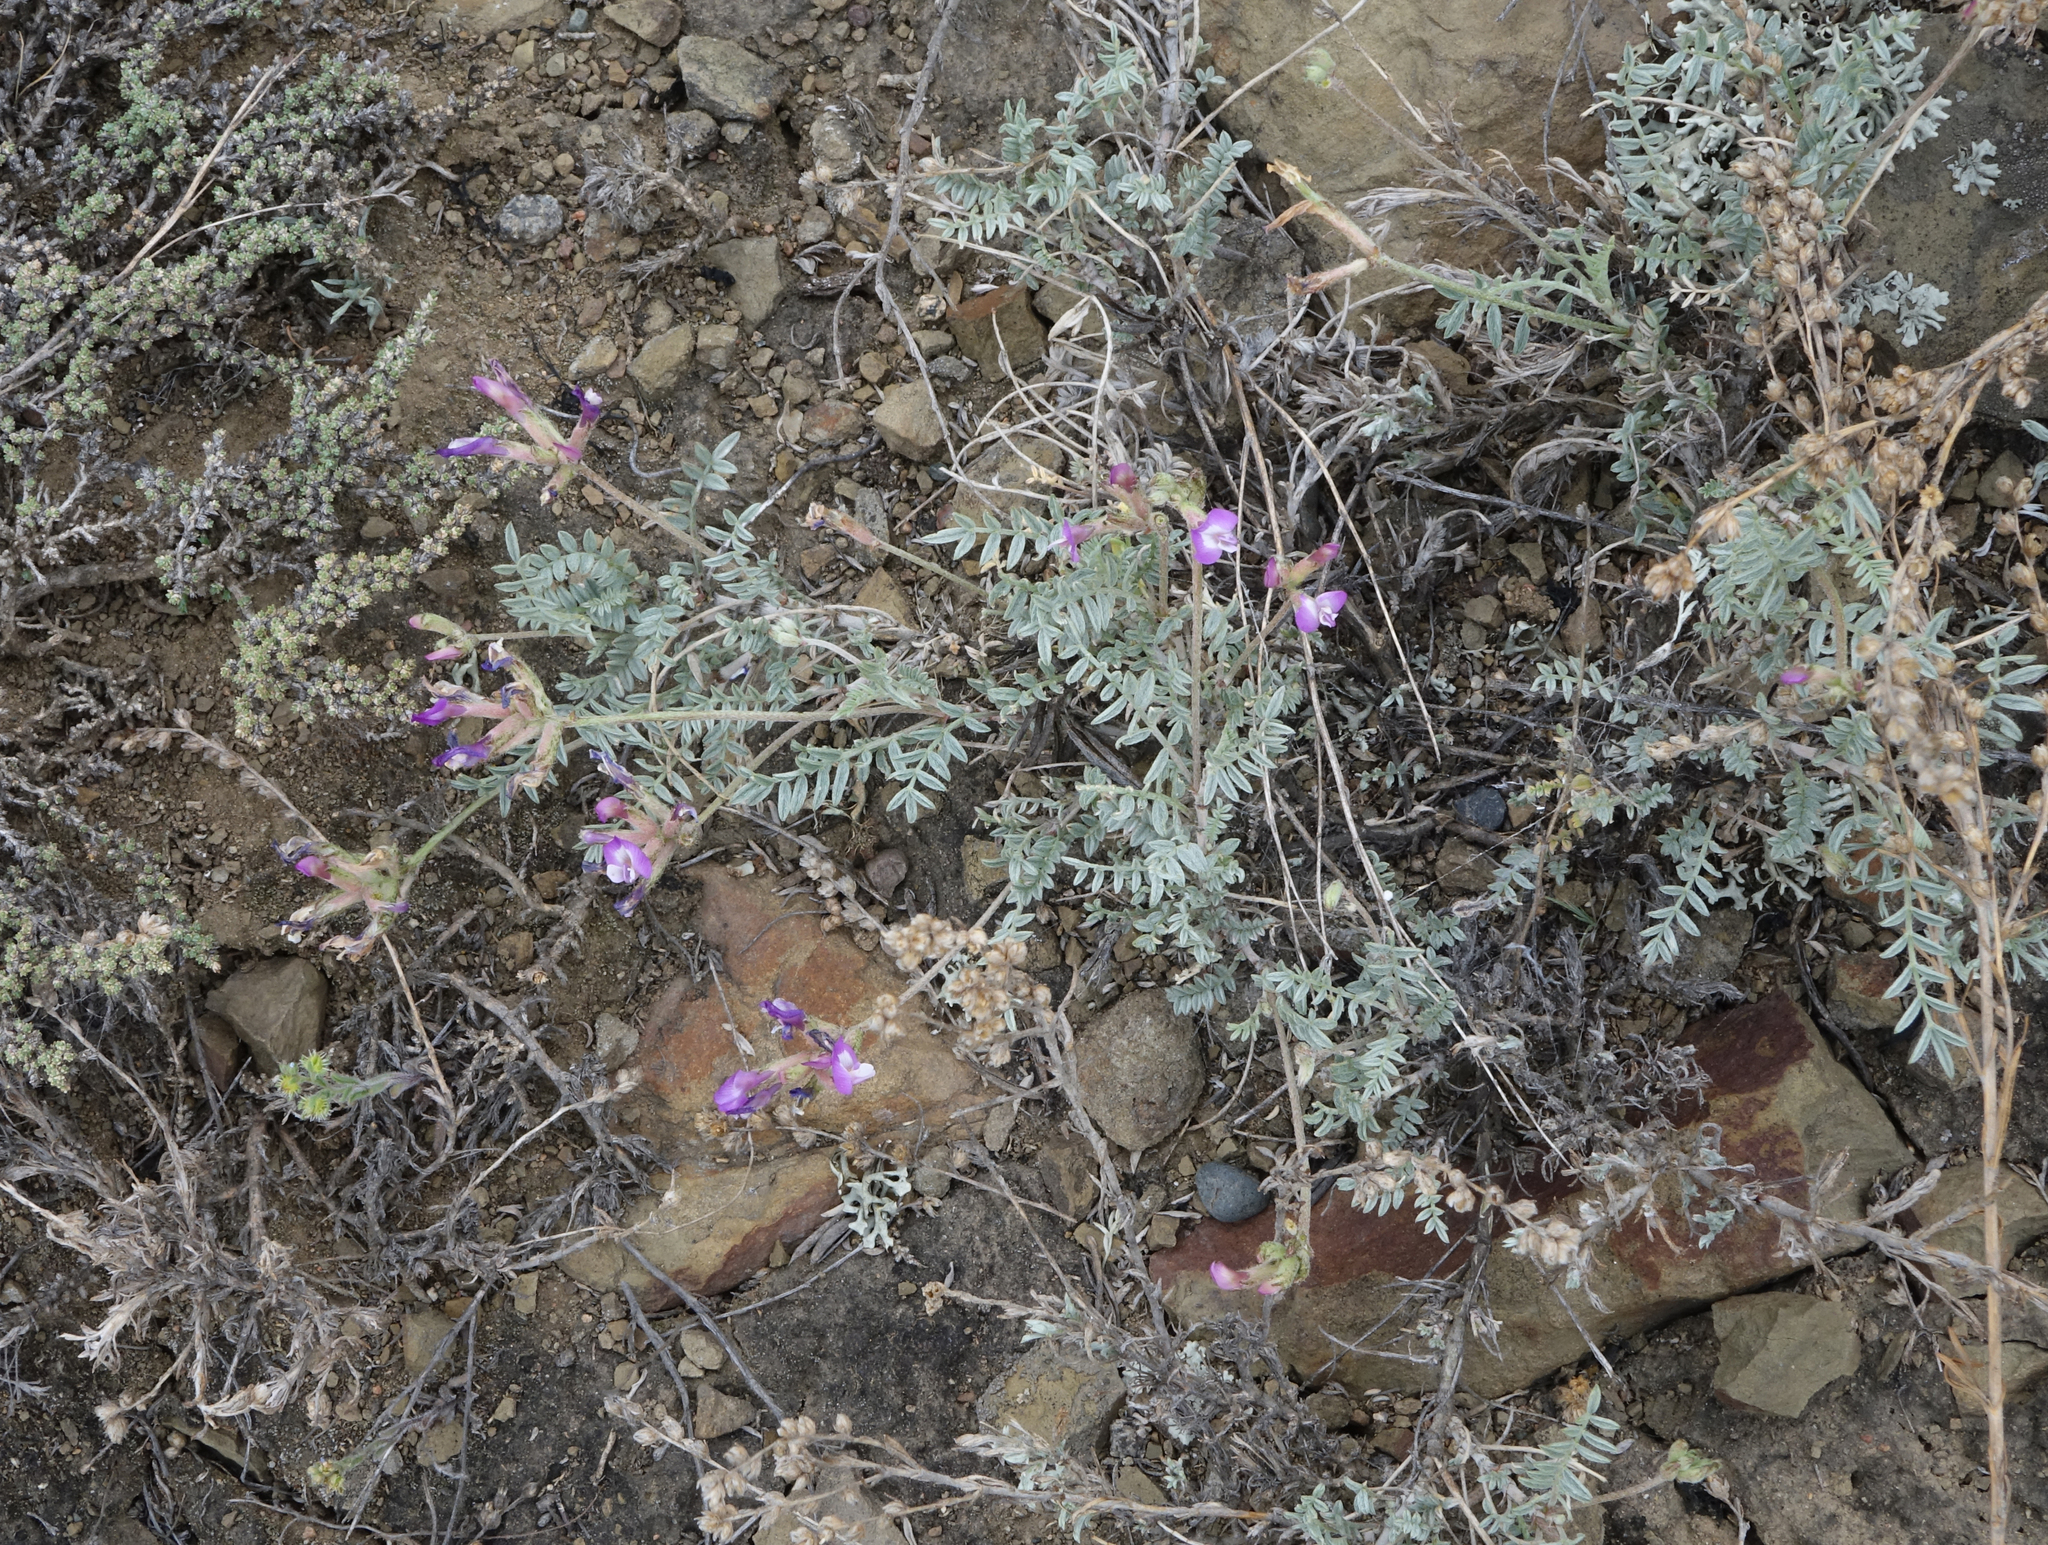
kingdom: Plantae
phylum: Tracheophyta
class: Magnoliopsida
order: Fabales
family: Fabaceae
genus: Astragalus
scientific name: Astragalus stenoceras
